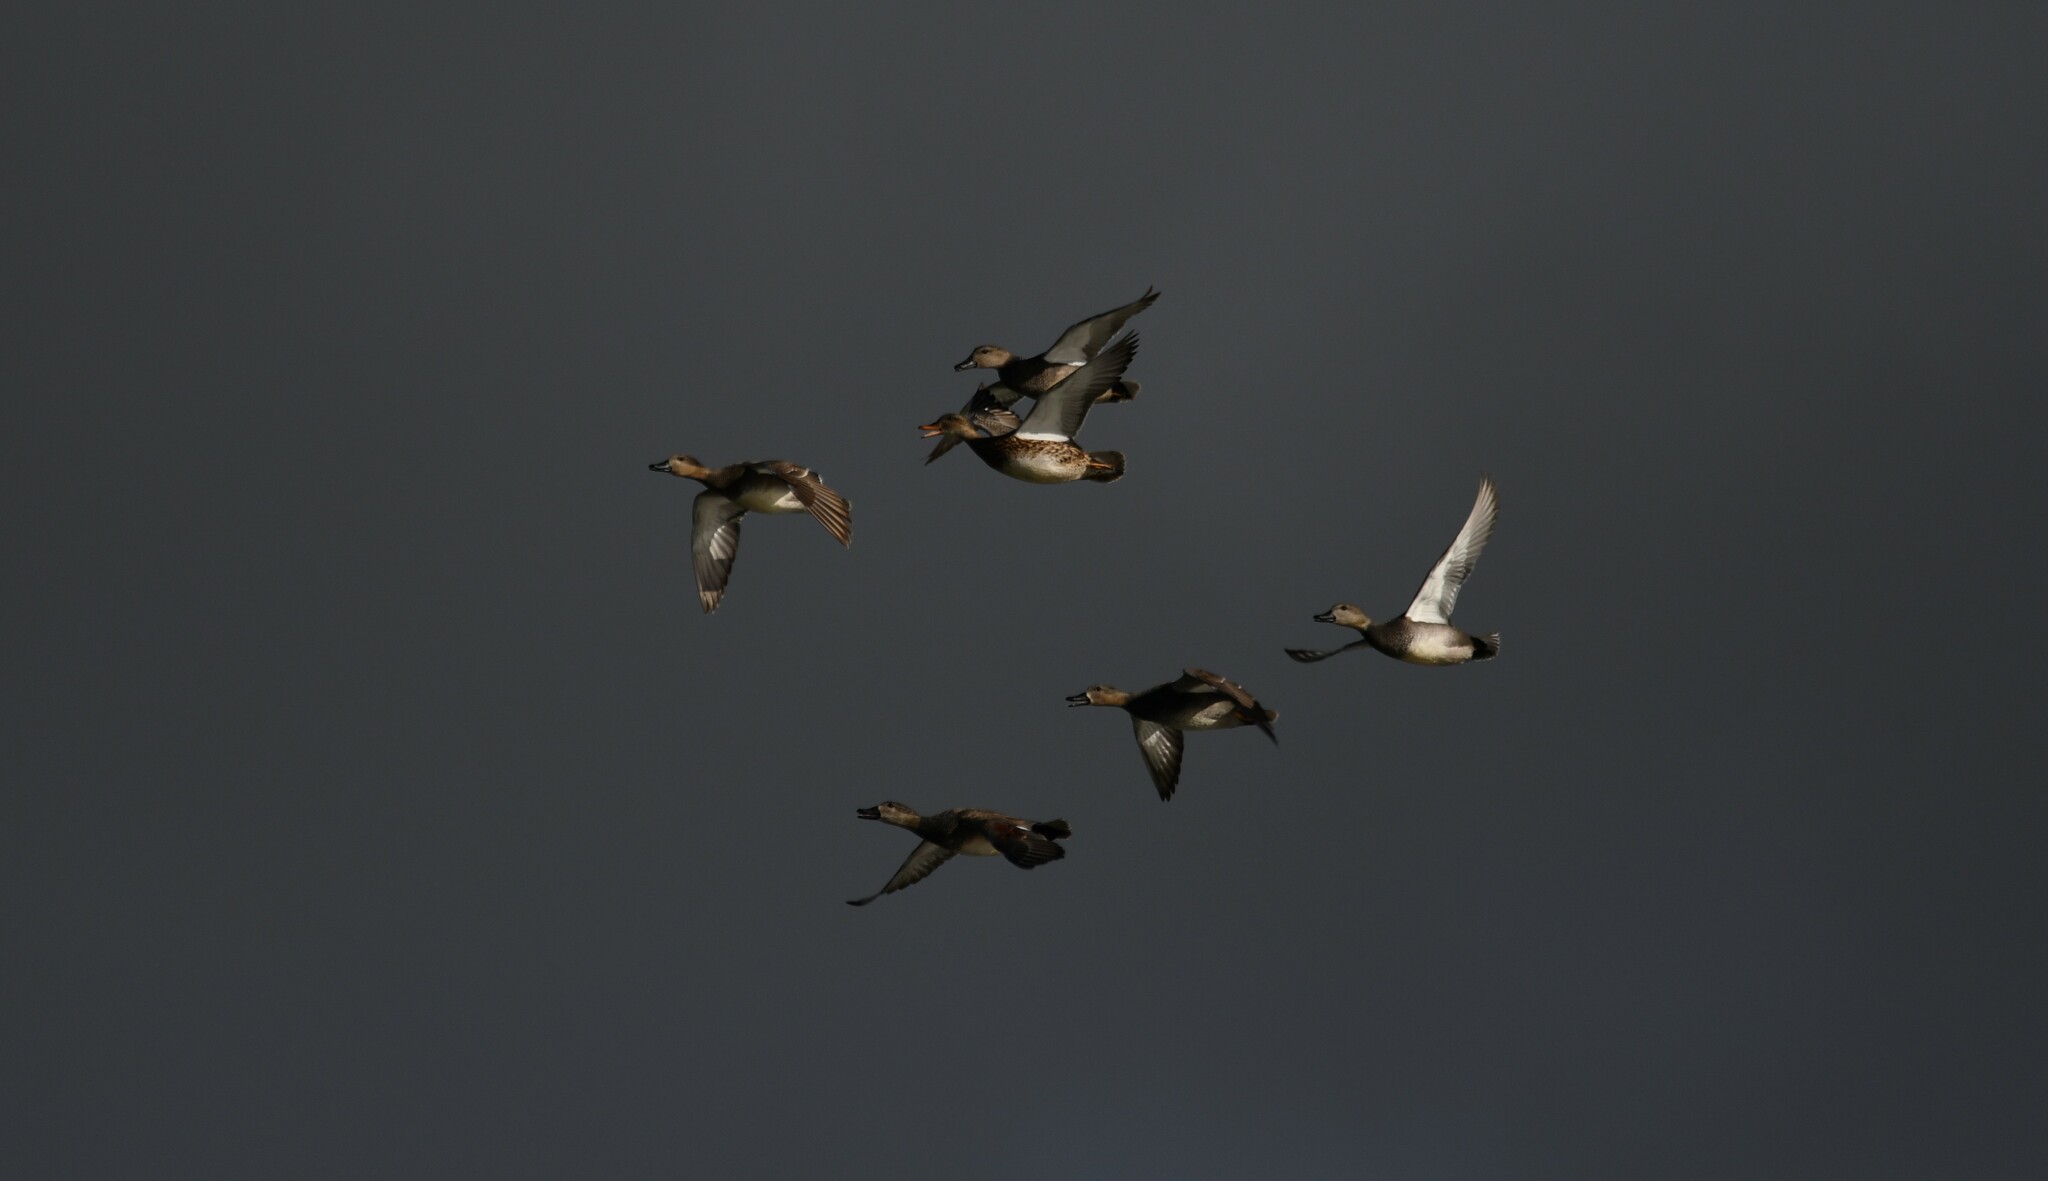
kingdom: Animalia
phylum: Chordata
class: Aves
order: Anseriformes
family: Anatidae
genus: Mareca
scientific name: Mareca strepera
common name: Gadwall
